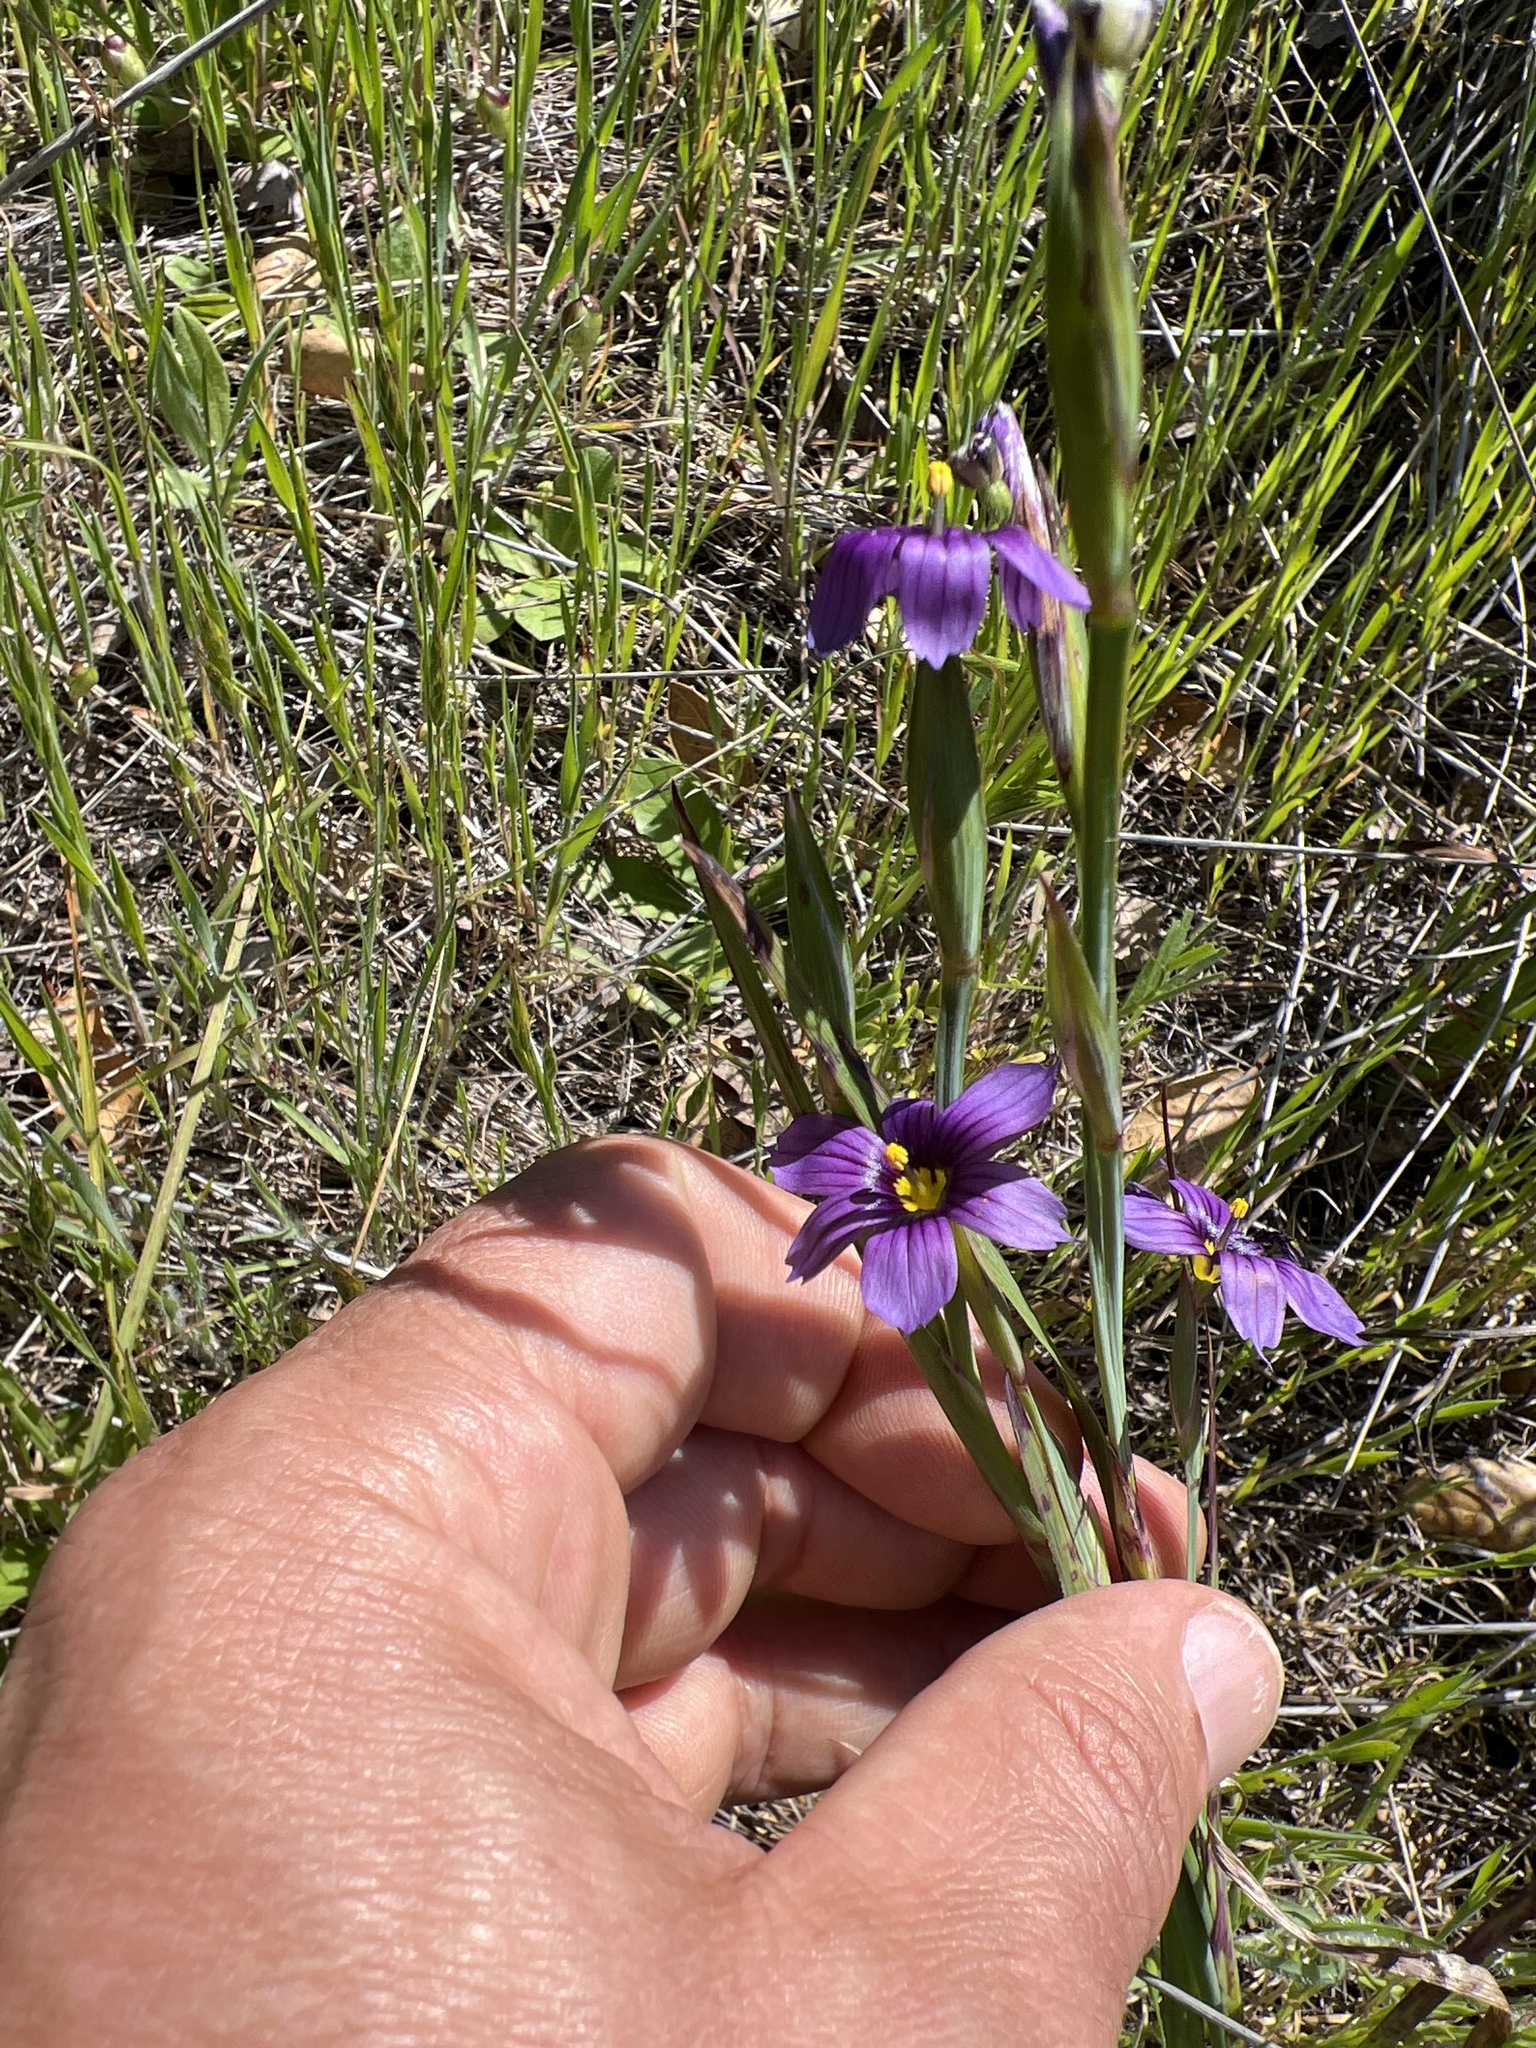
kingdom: Plantae
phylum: Tracheophyta
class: Liliopsida
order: Asparagales
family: Iridaceae
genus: Sisyrinchium
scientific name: Sisyrinchium bellum
